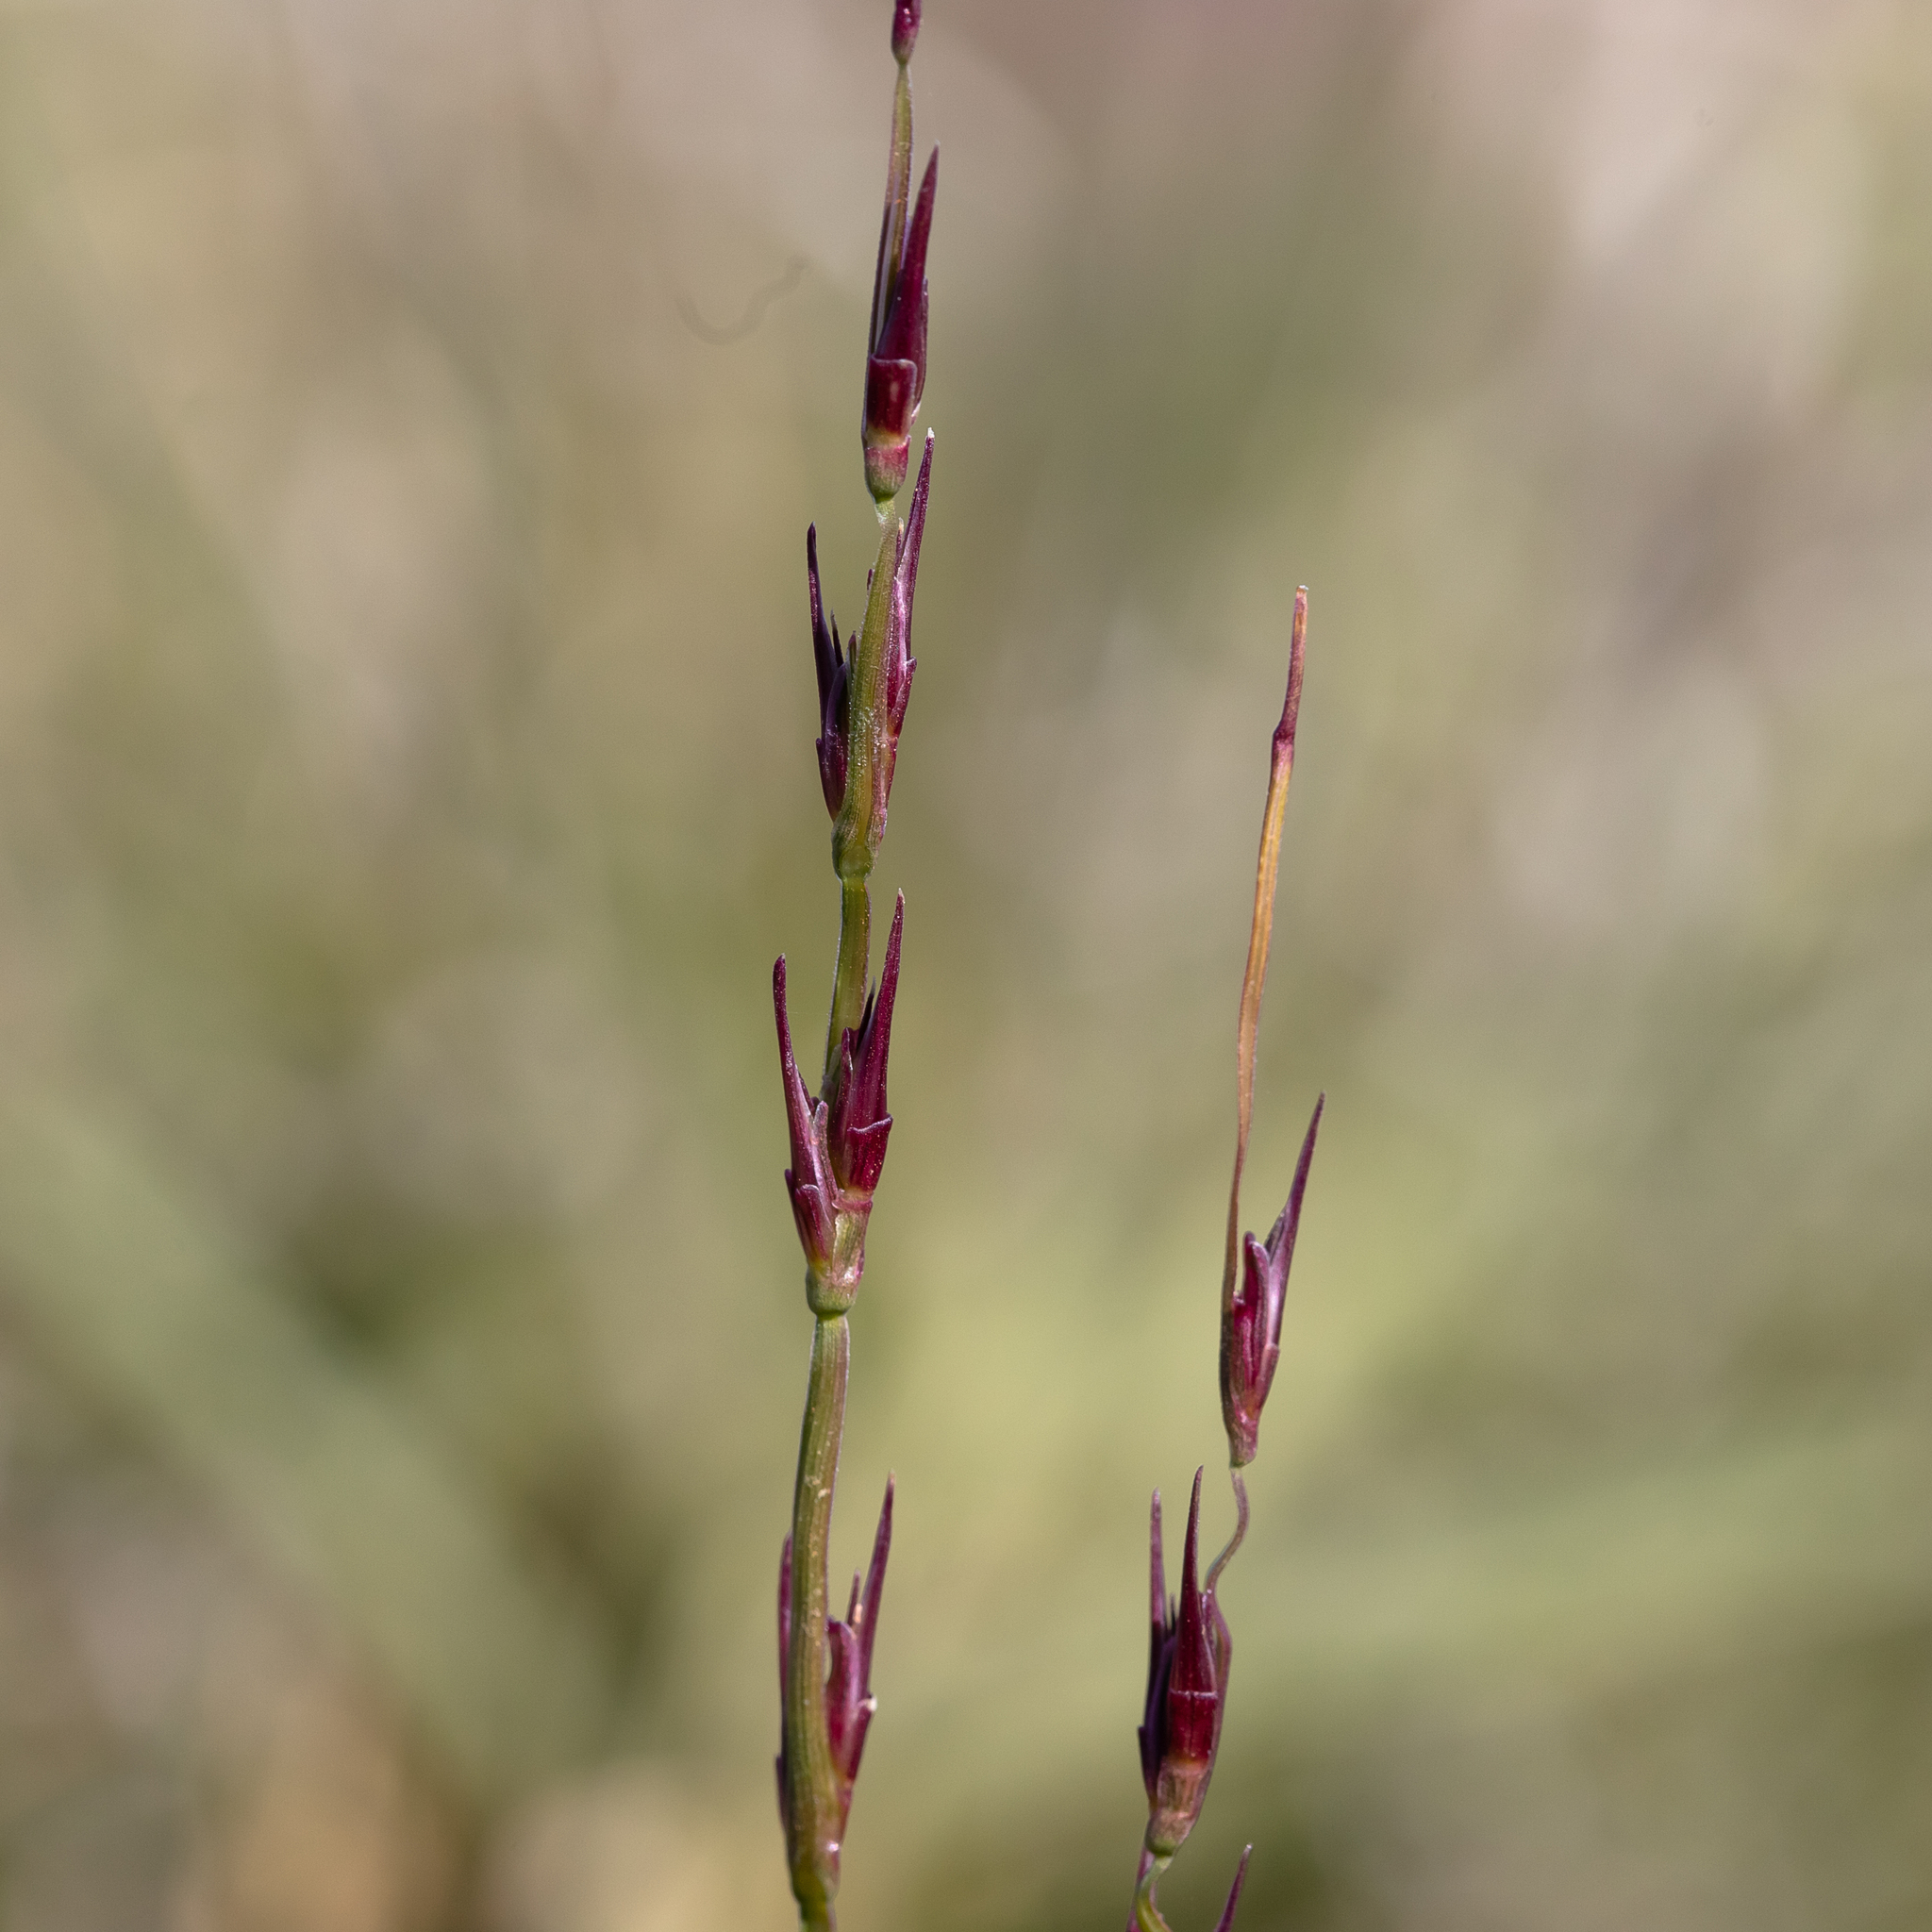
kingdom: Plantae
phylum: Tracheophyta
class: Liliopsida
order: Poales
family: Poaceae
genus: Uranthoecium
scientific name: Uranthoecium truncatum
